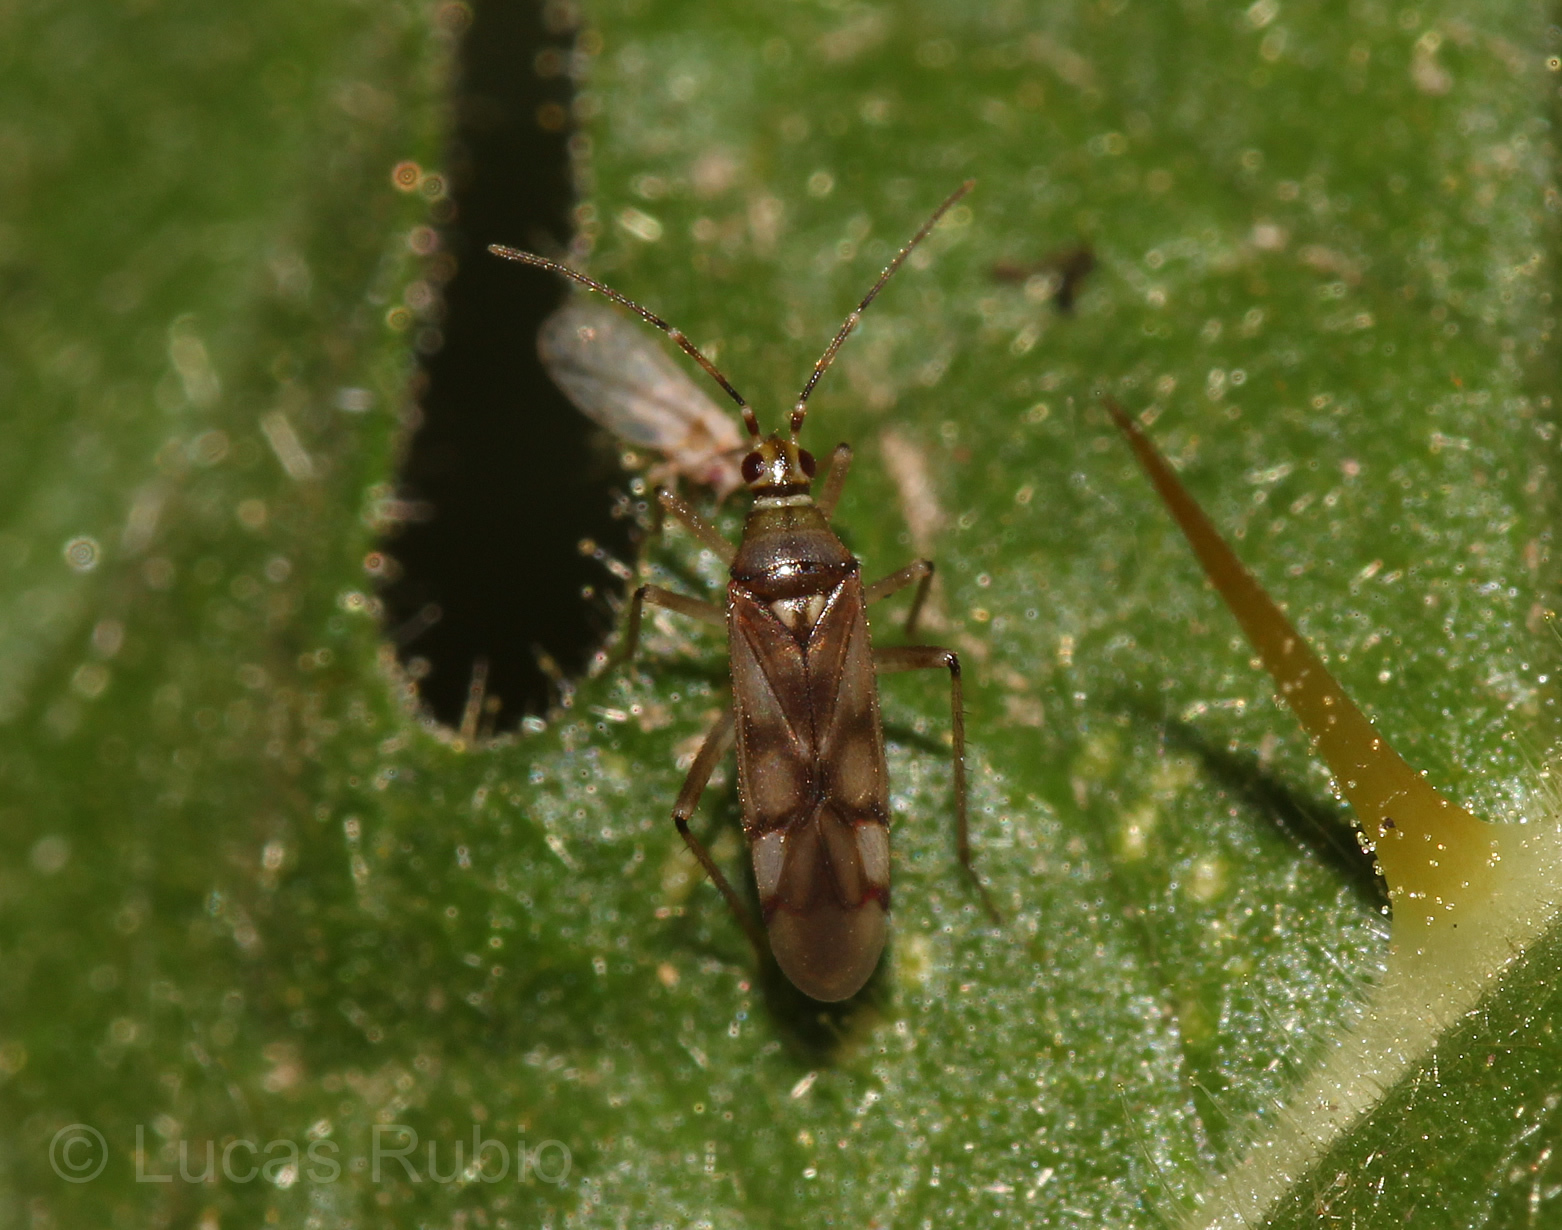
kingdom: Animalia
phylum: Arthropoda
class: Insecta
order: Hemiptera
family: Miridae
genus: Campyloneuropsis
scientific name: Campyloneuropsis cincticornis
